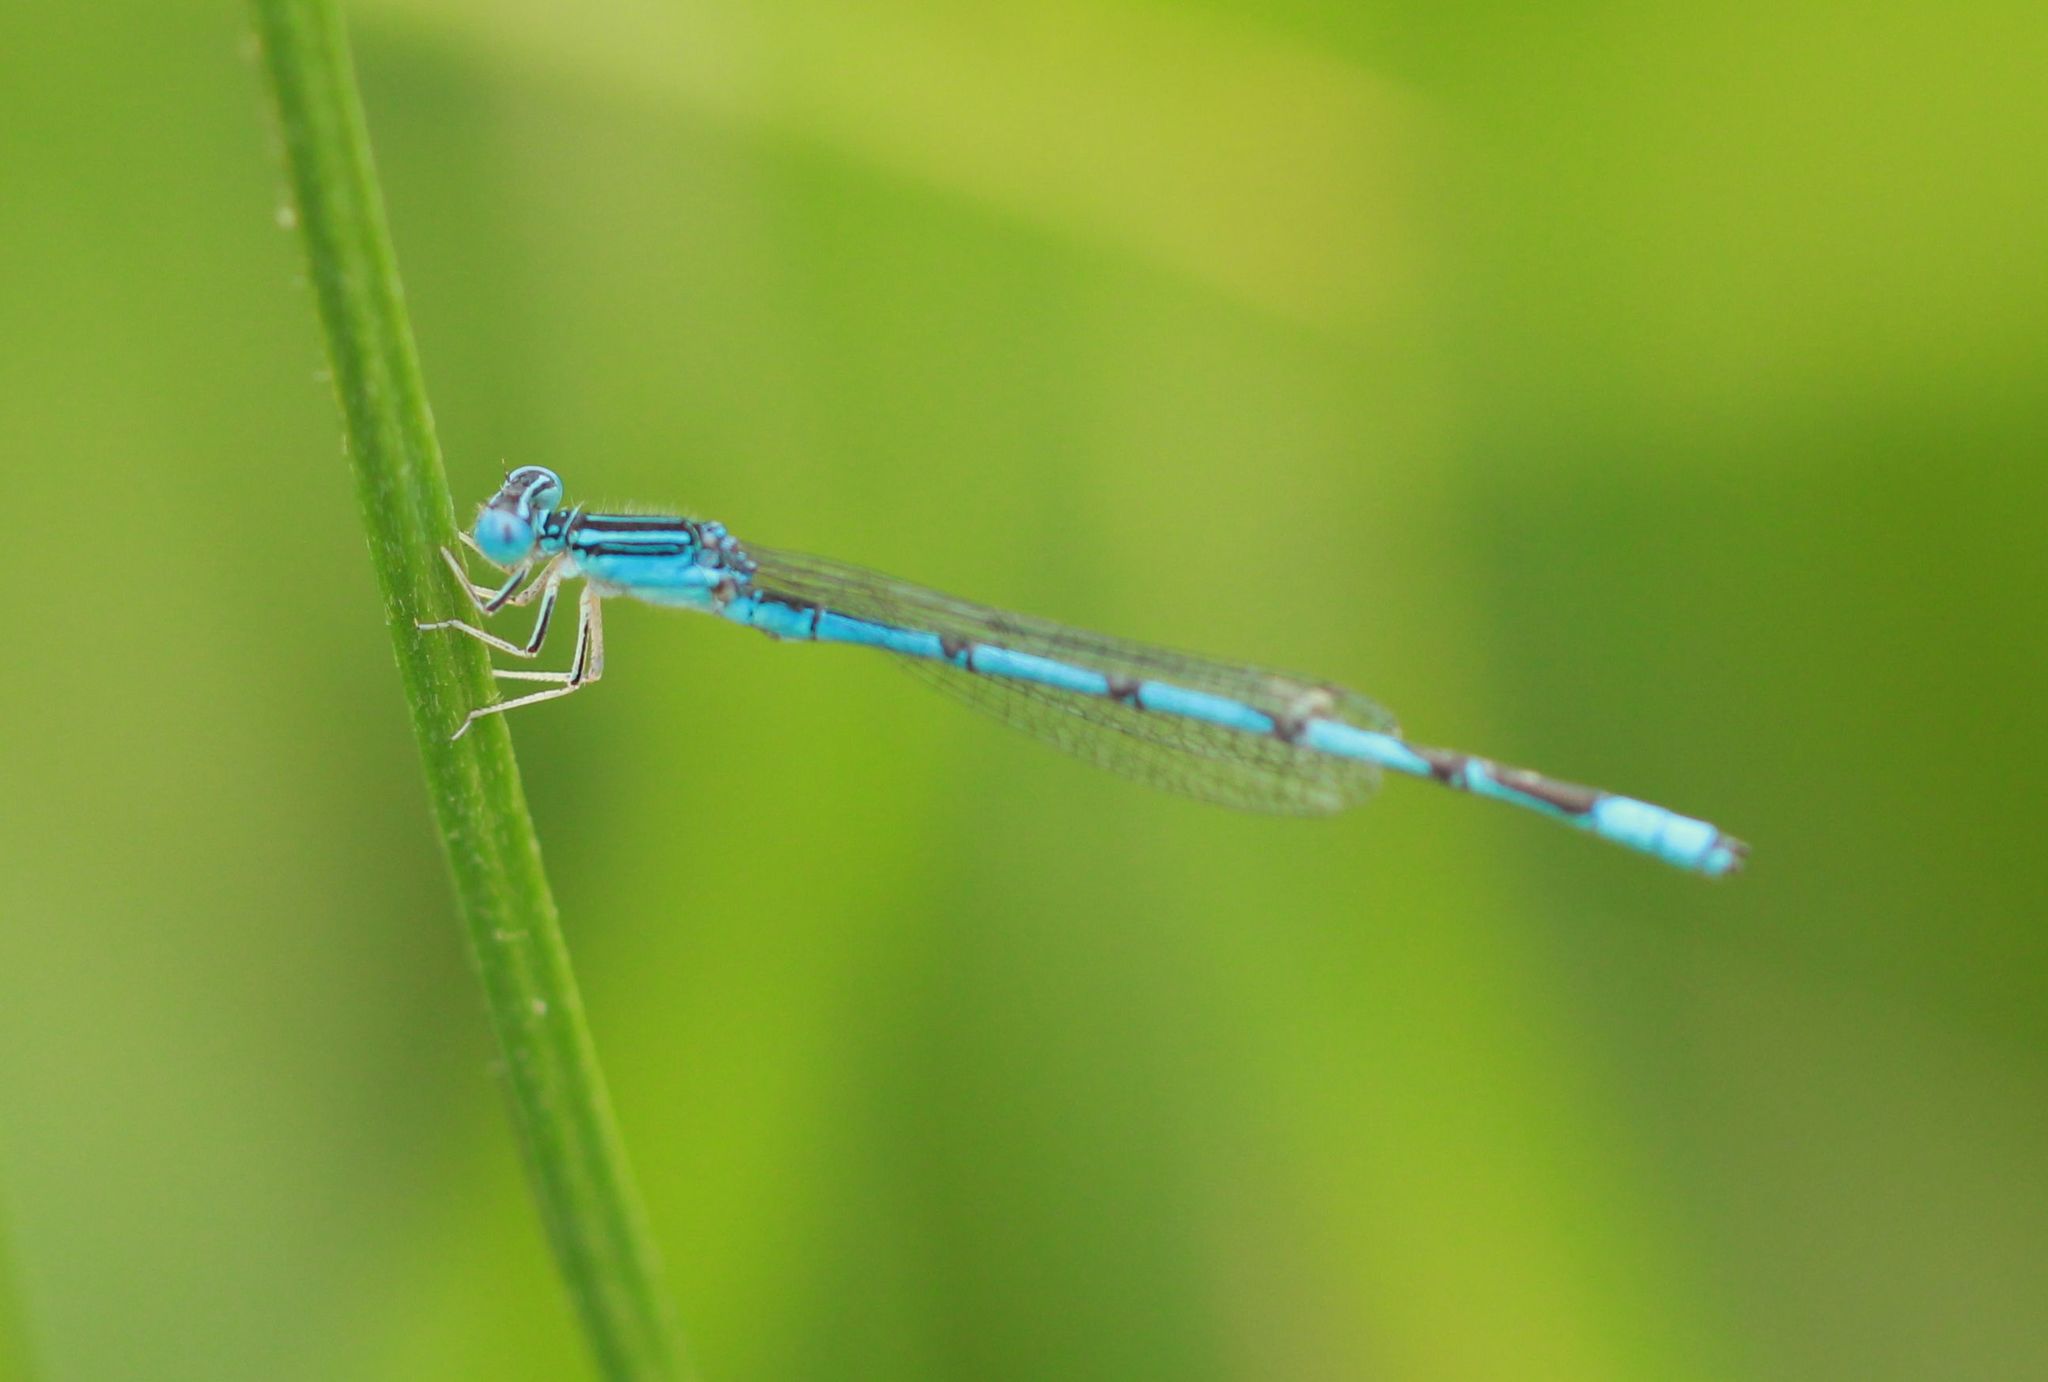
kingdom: Animalia
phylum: Arthropoda
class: Insecta
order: Odonata
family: Coenagrionidae
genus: Enallagma
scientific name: Enallagma basidens
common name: Double-striped bluet
